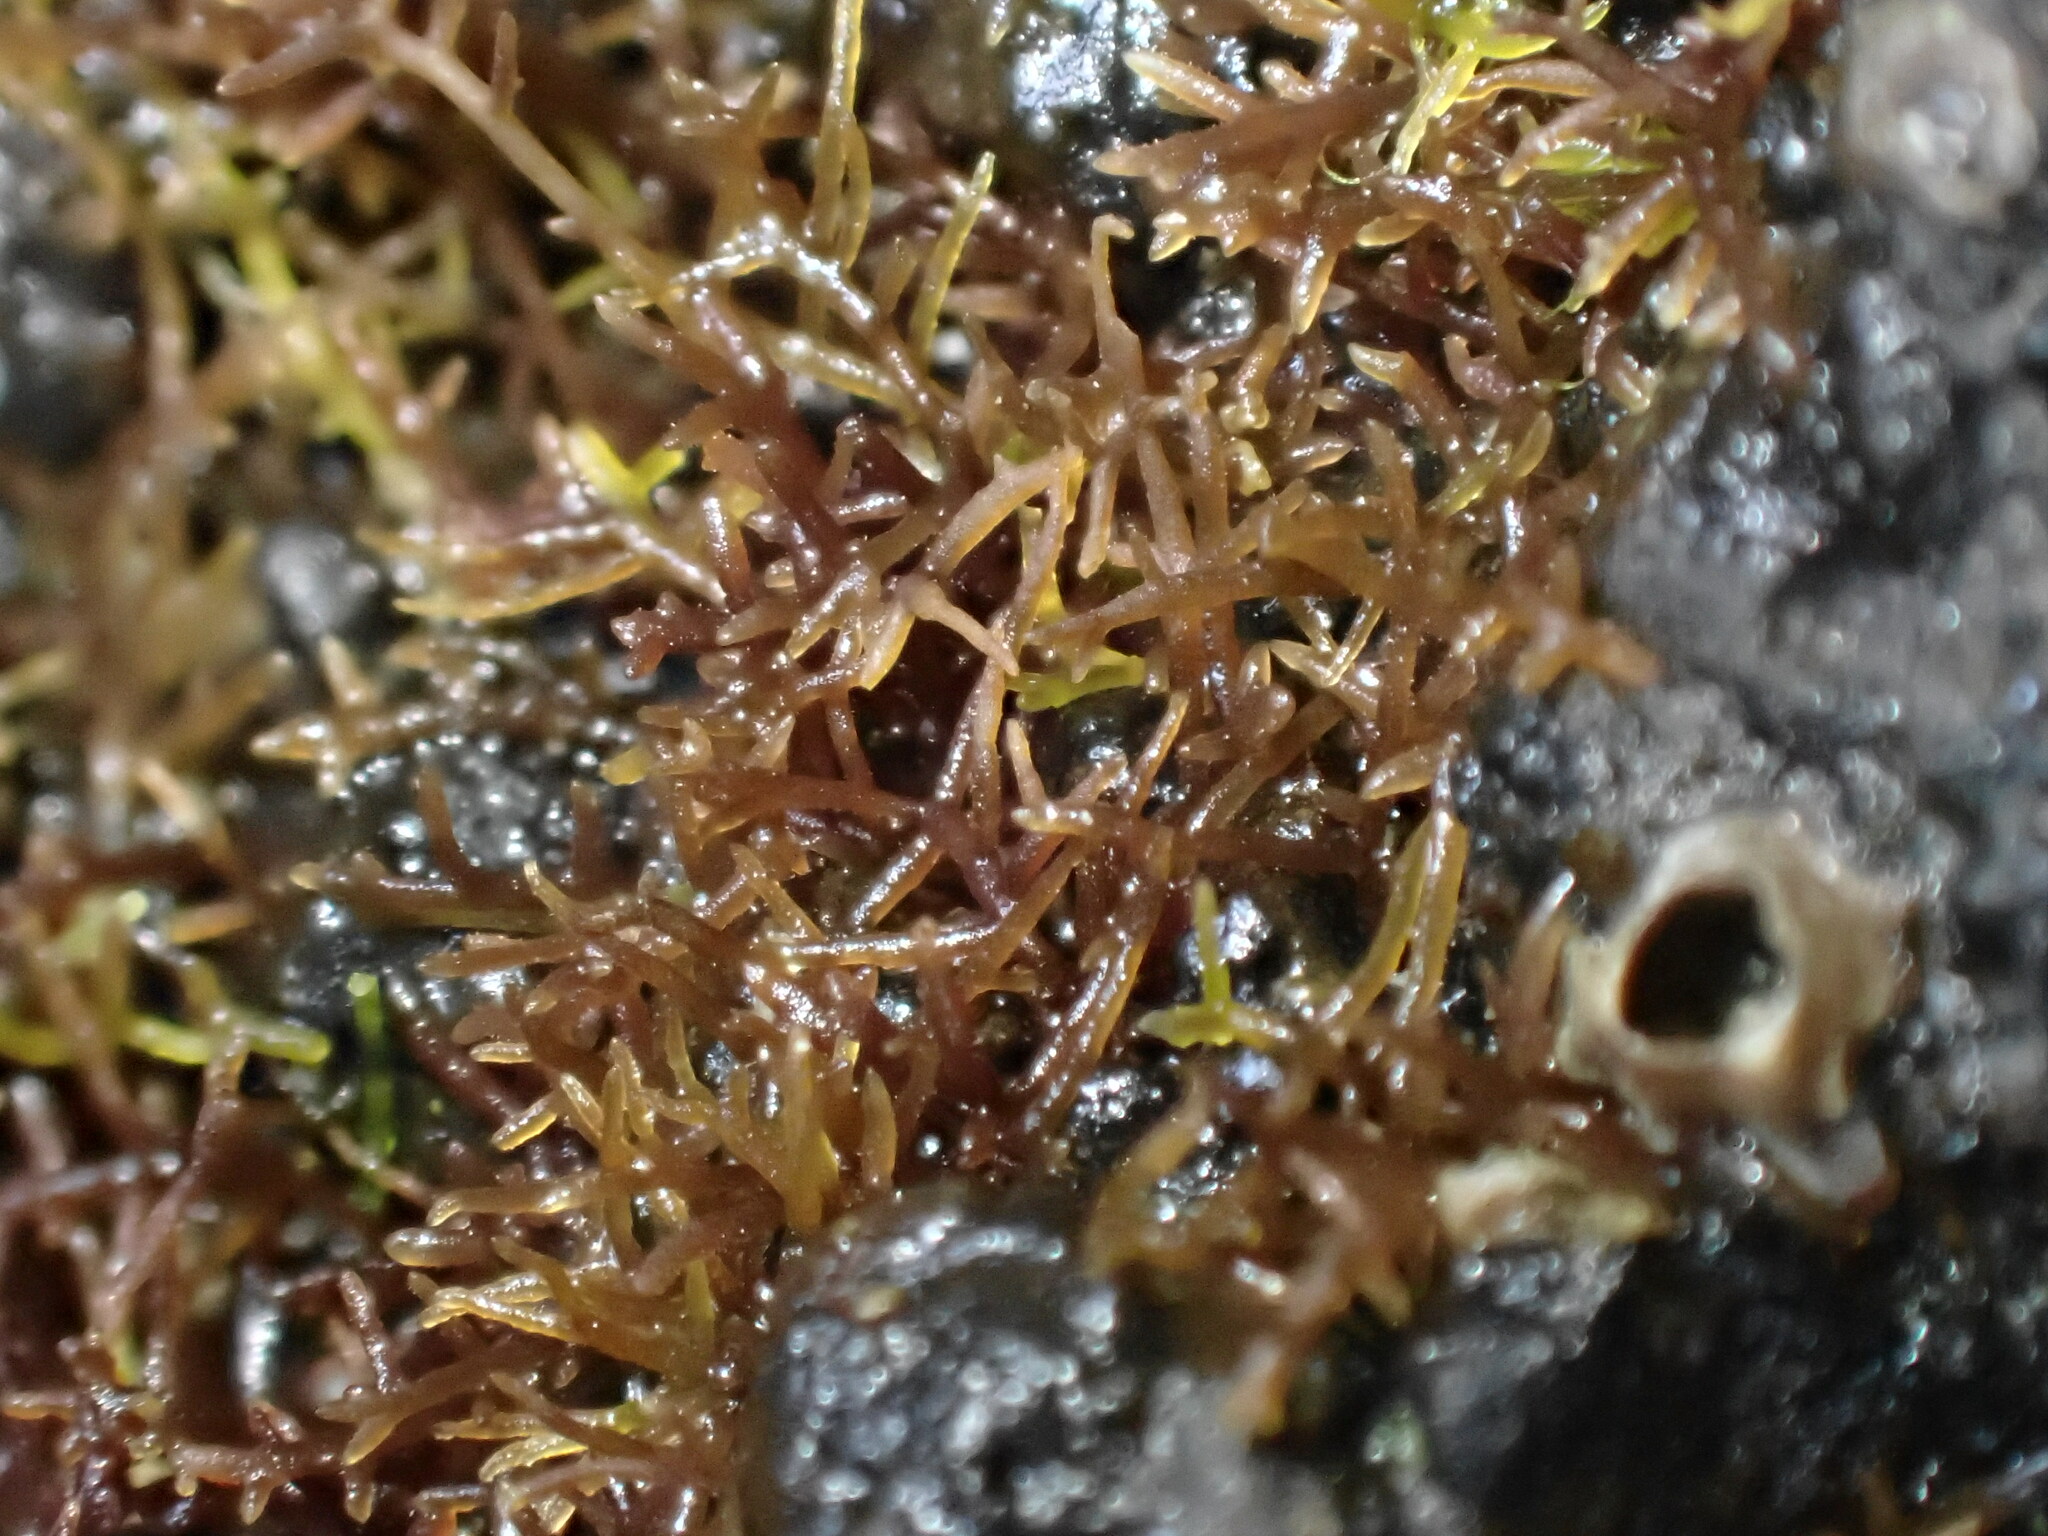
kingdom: Plantae
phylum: Rhodophyta
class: Florideophyceae
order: Gelidiales
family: Gelidiaceae
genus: Capreolia
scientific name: Capreolia implexa
